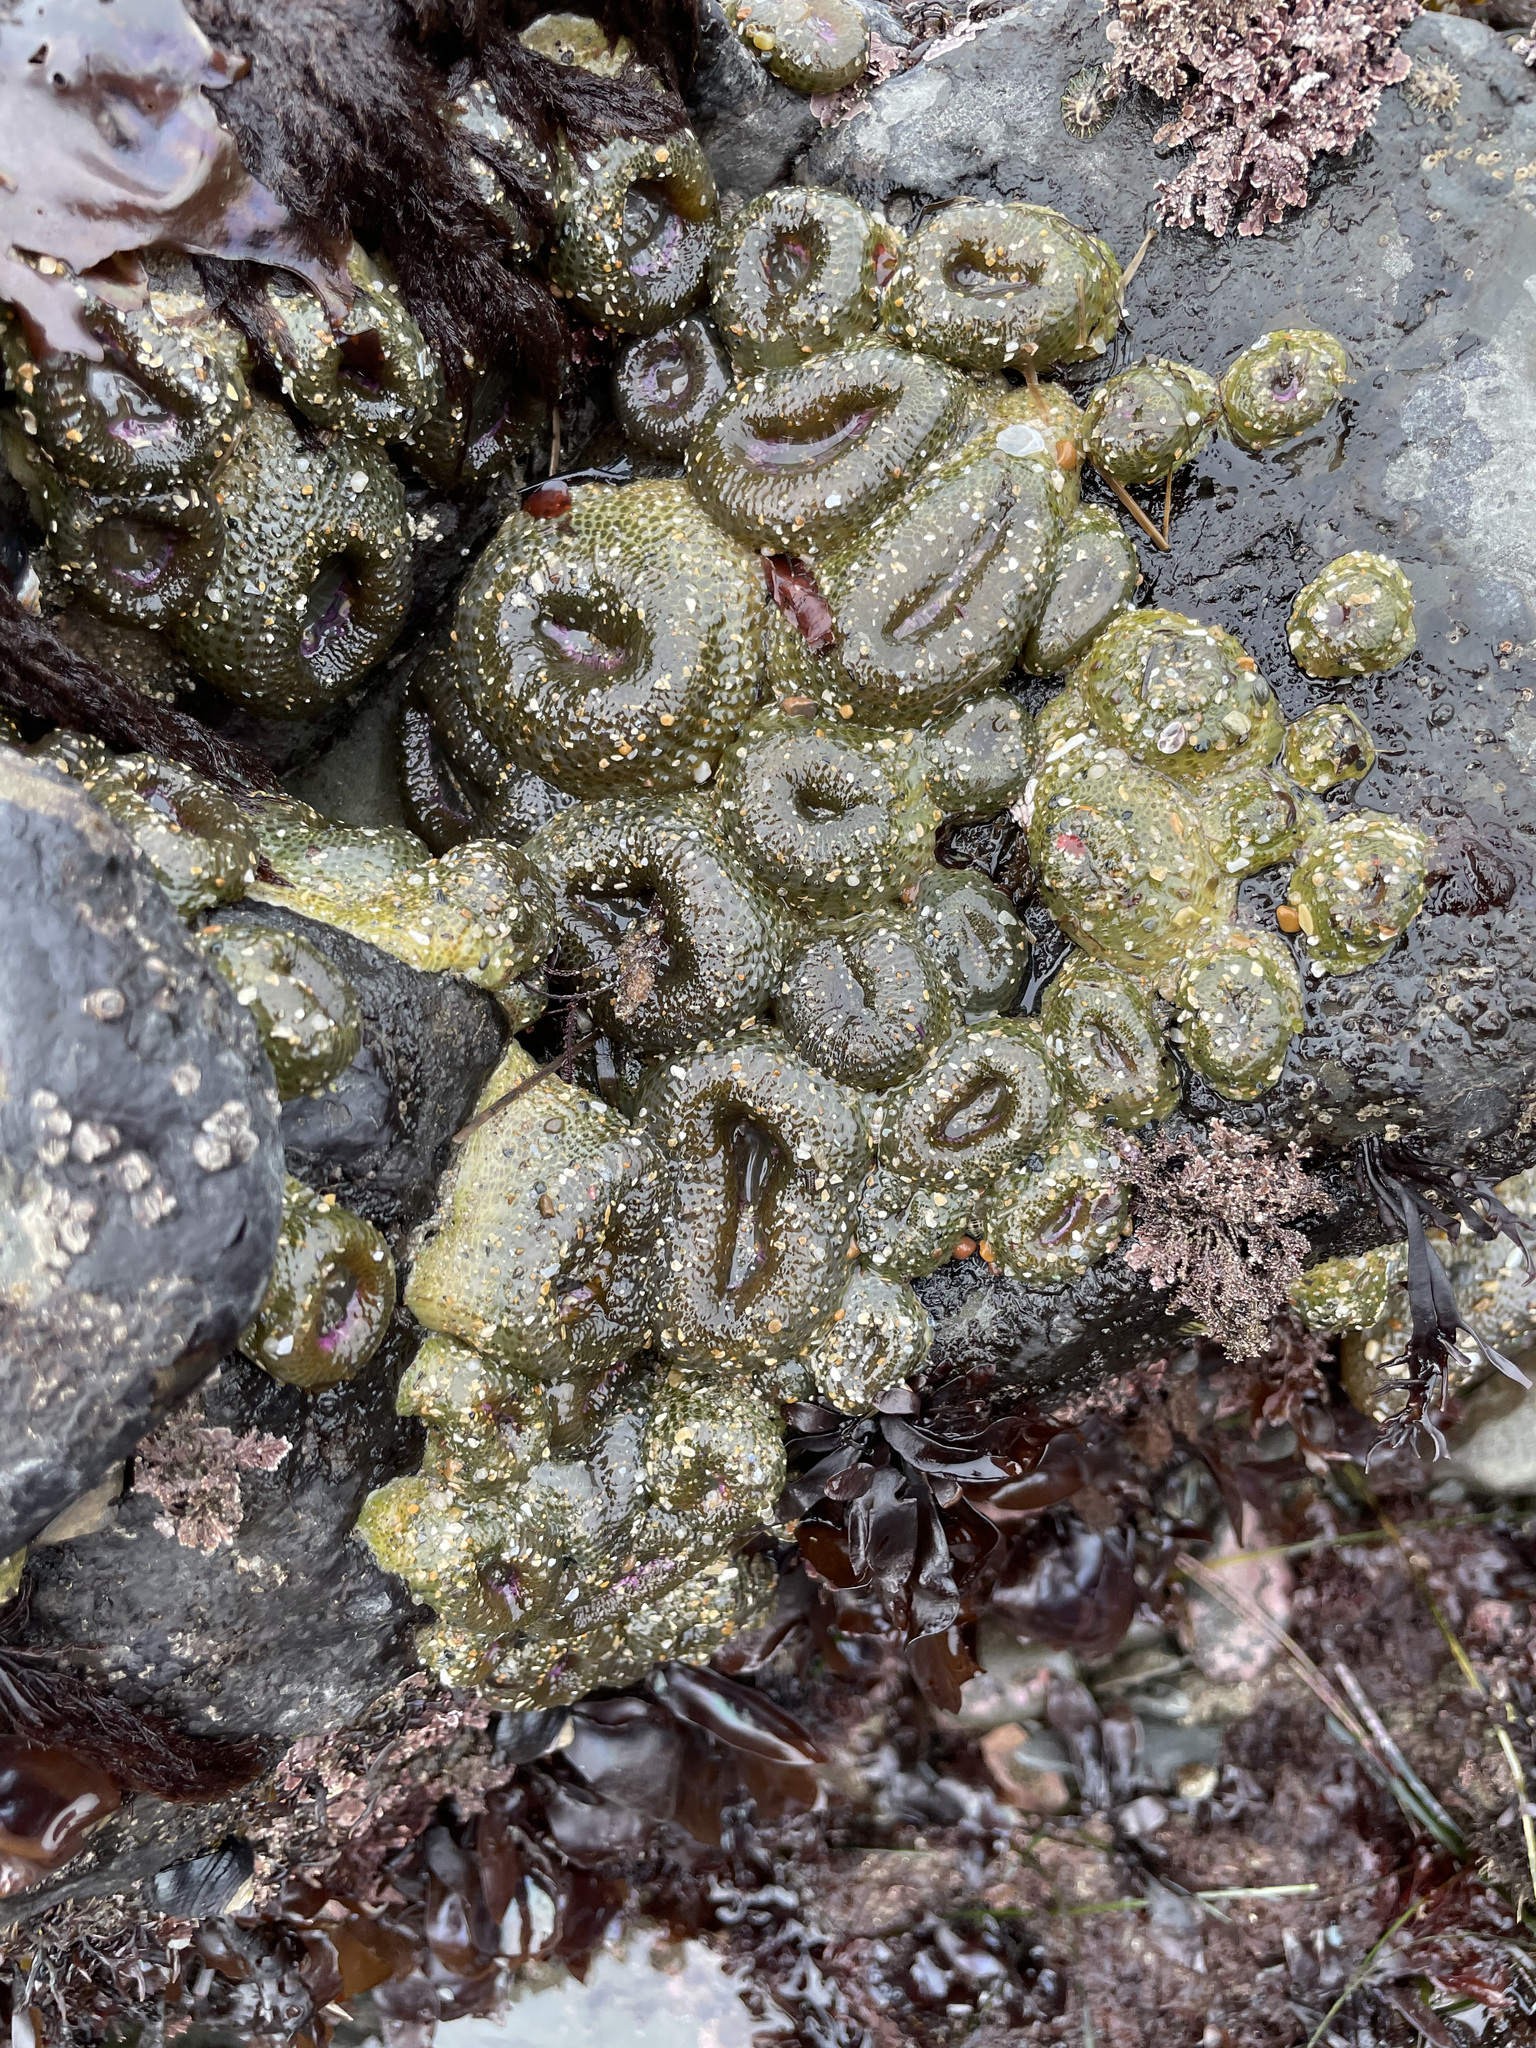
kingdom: Animalia
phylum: Cnidaria
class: Anthozoa
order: Actiniaria
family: Actiniidae
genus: Anthopleura
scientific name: Anthopleura elegantissima
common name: Clonal anemone
